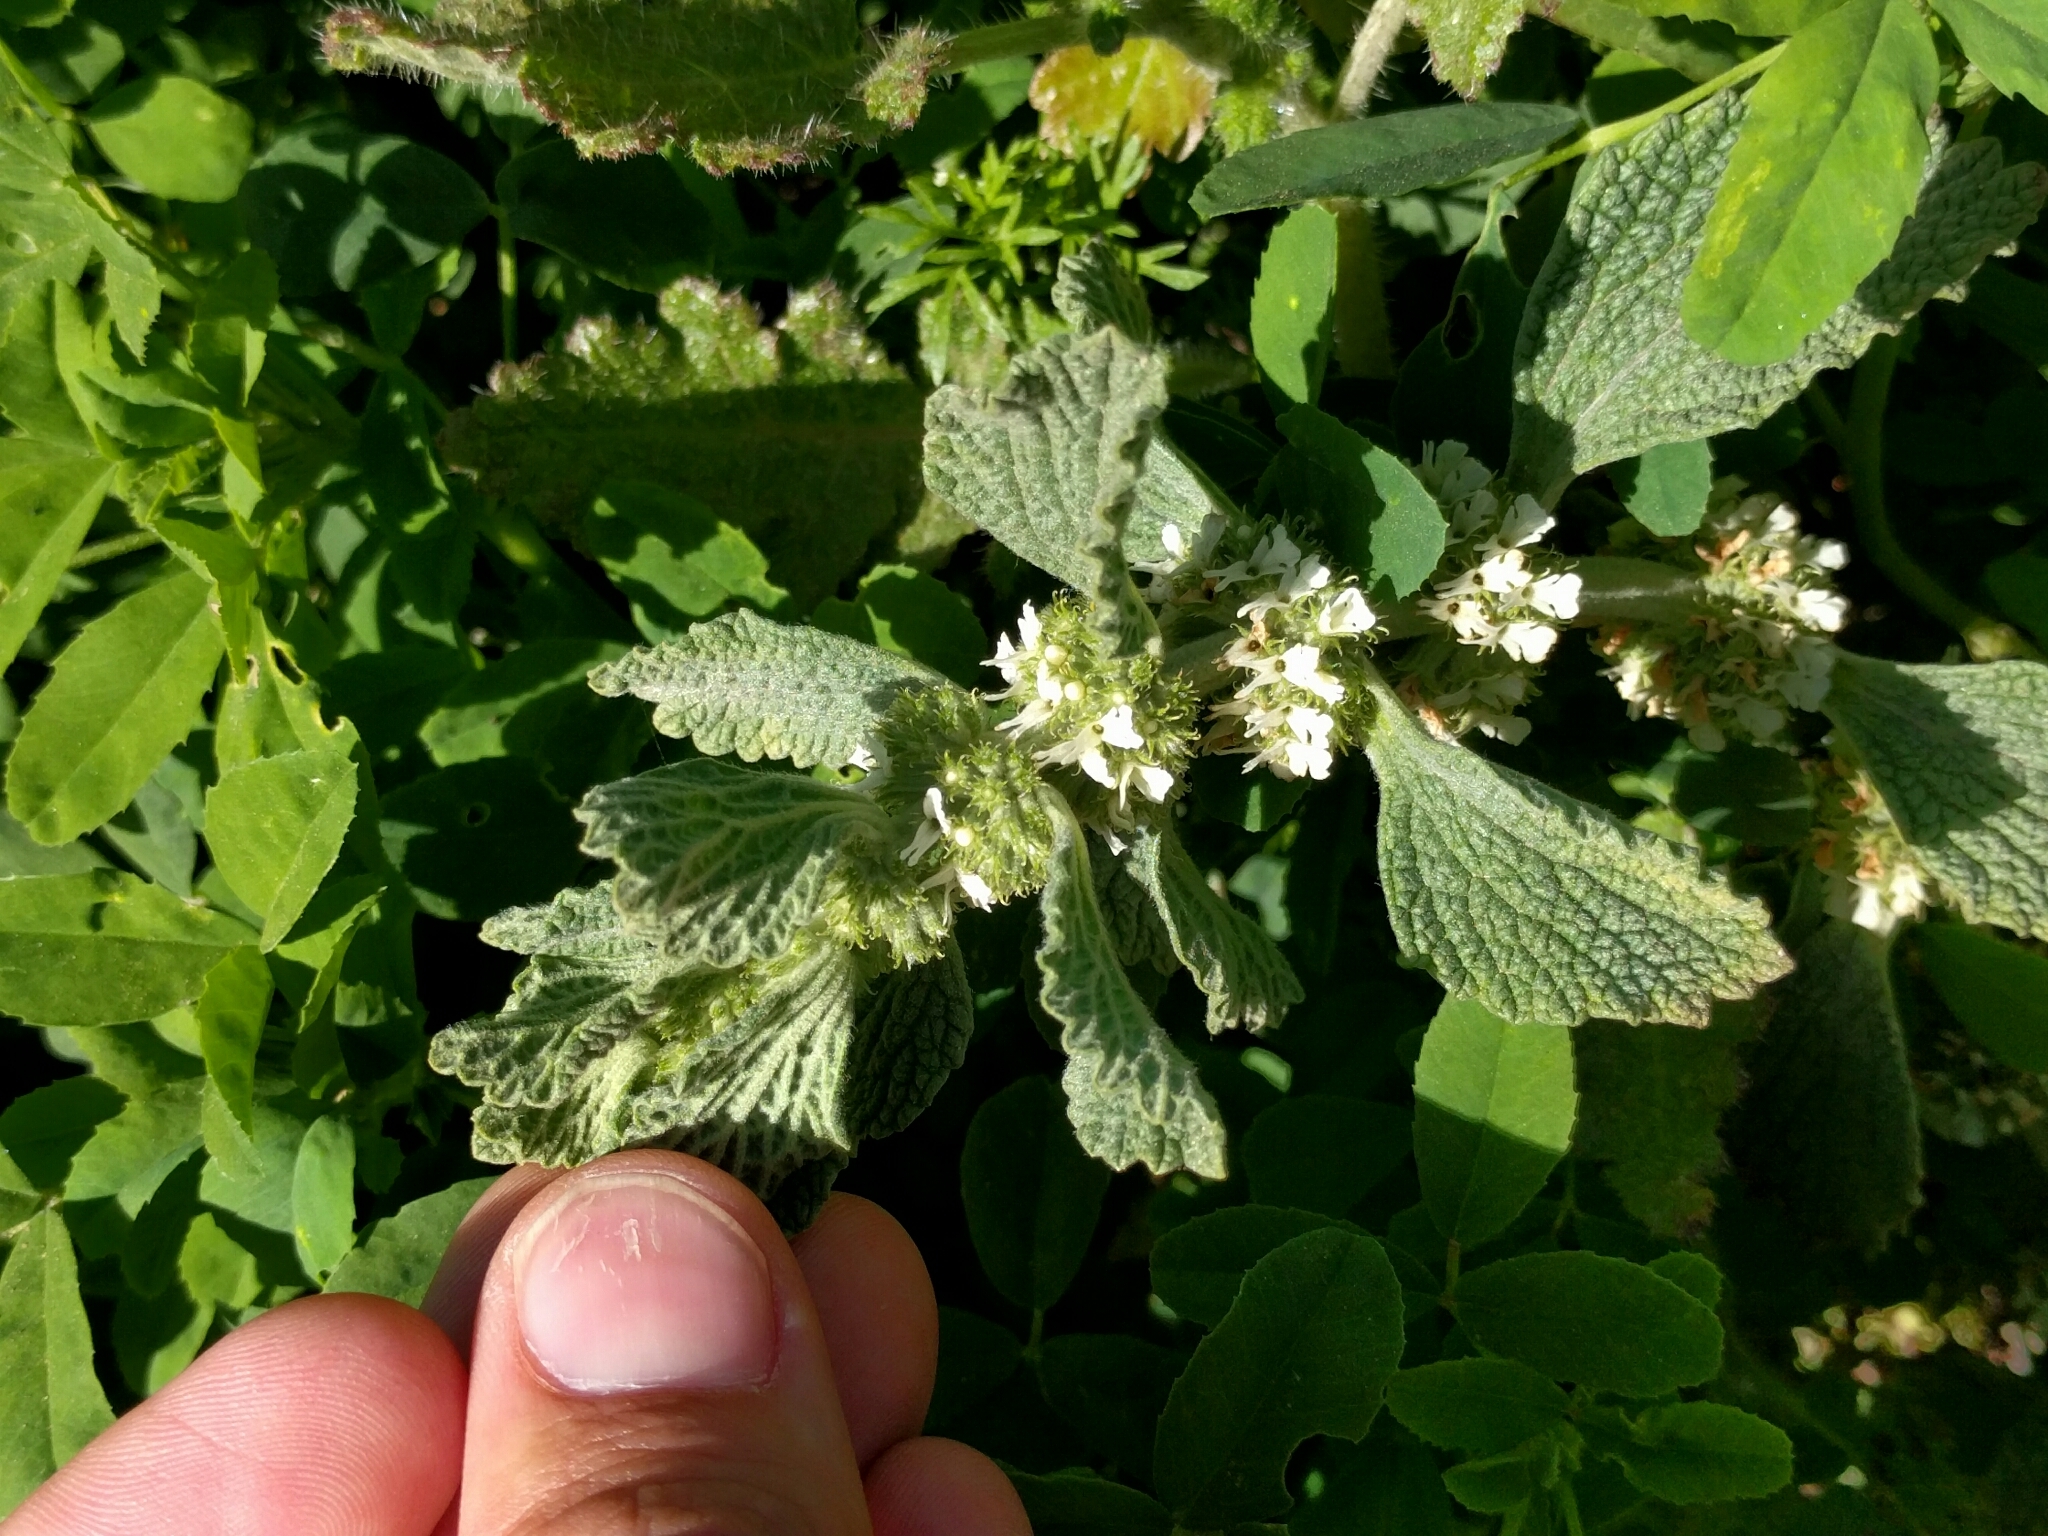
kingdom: Plantae
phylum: Tracheophyta
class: Magnoliopsida
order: Lamiales
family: Lamiaceae
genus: Marrubium
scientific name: Marrubium vulgare
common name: Horehound
